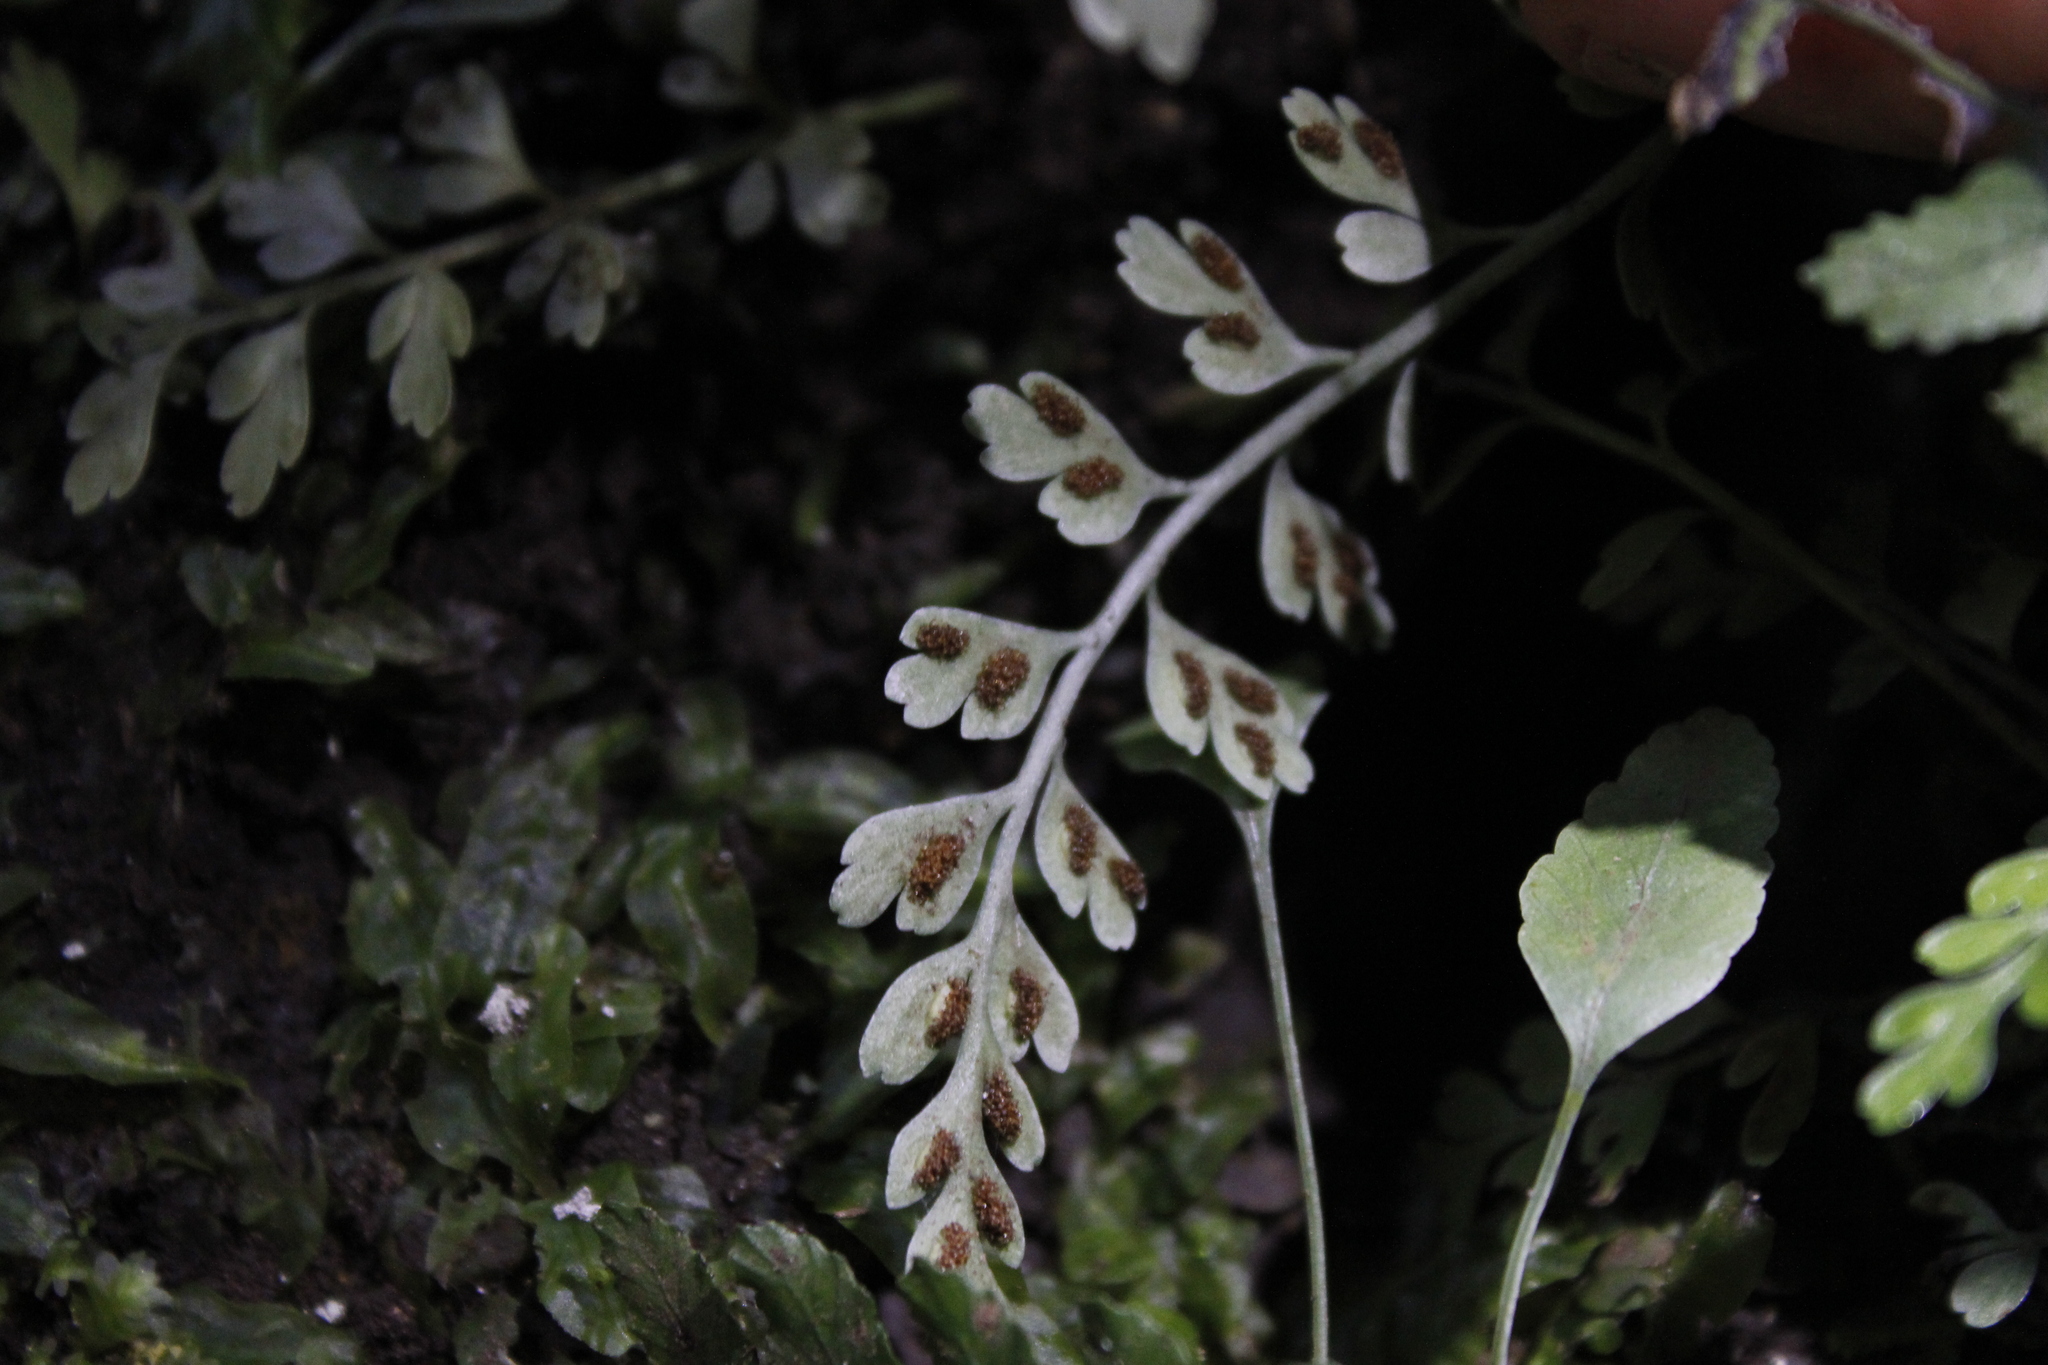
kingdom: Plantae
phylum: Tracheophyta
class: Polypodiopsida
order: Polypodiales
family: Aspleniaceae
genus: Asplenium
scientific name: Asplenium cimmeriorum
